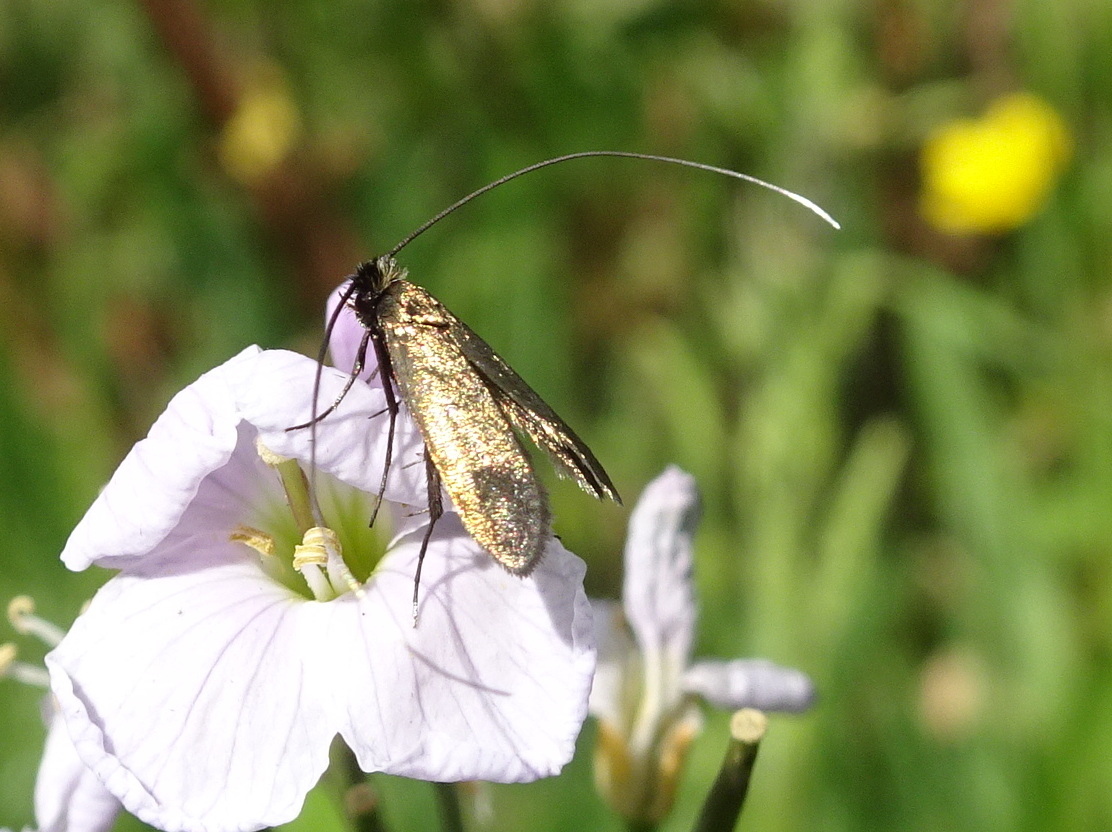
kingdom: Animalia
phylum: Arthropoda
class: Insecta
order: Lepidoptera
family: Adelidae
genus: Cauchas
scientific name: Cauchas rufimitrella
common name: Meadow long-horn
